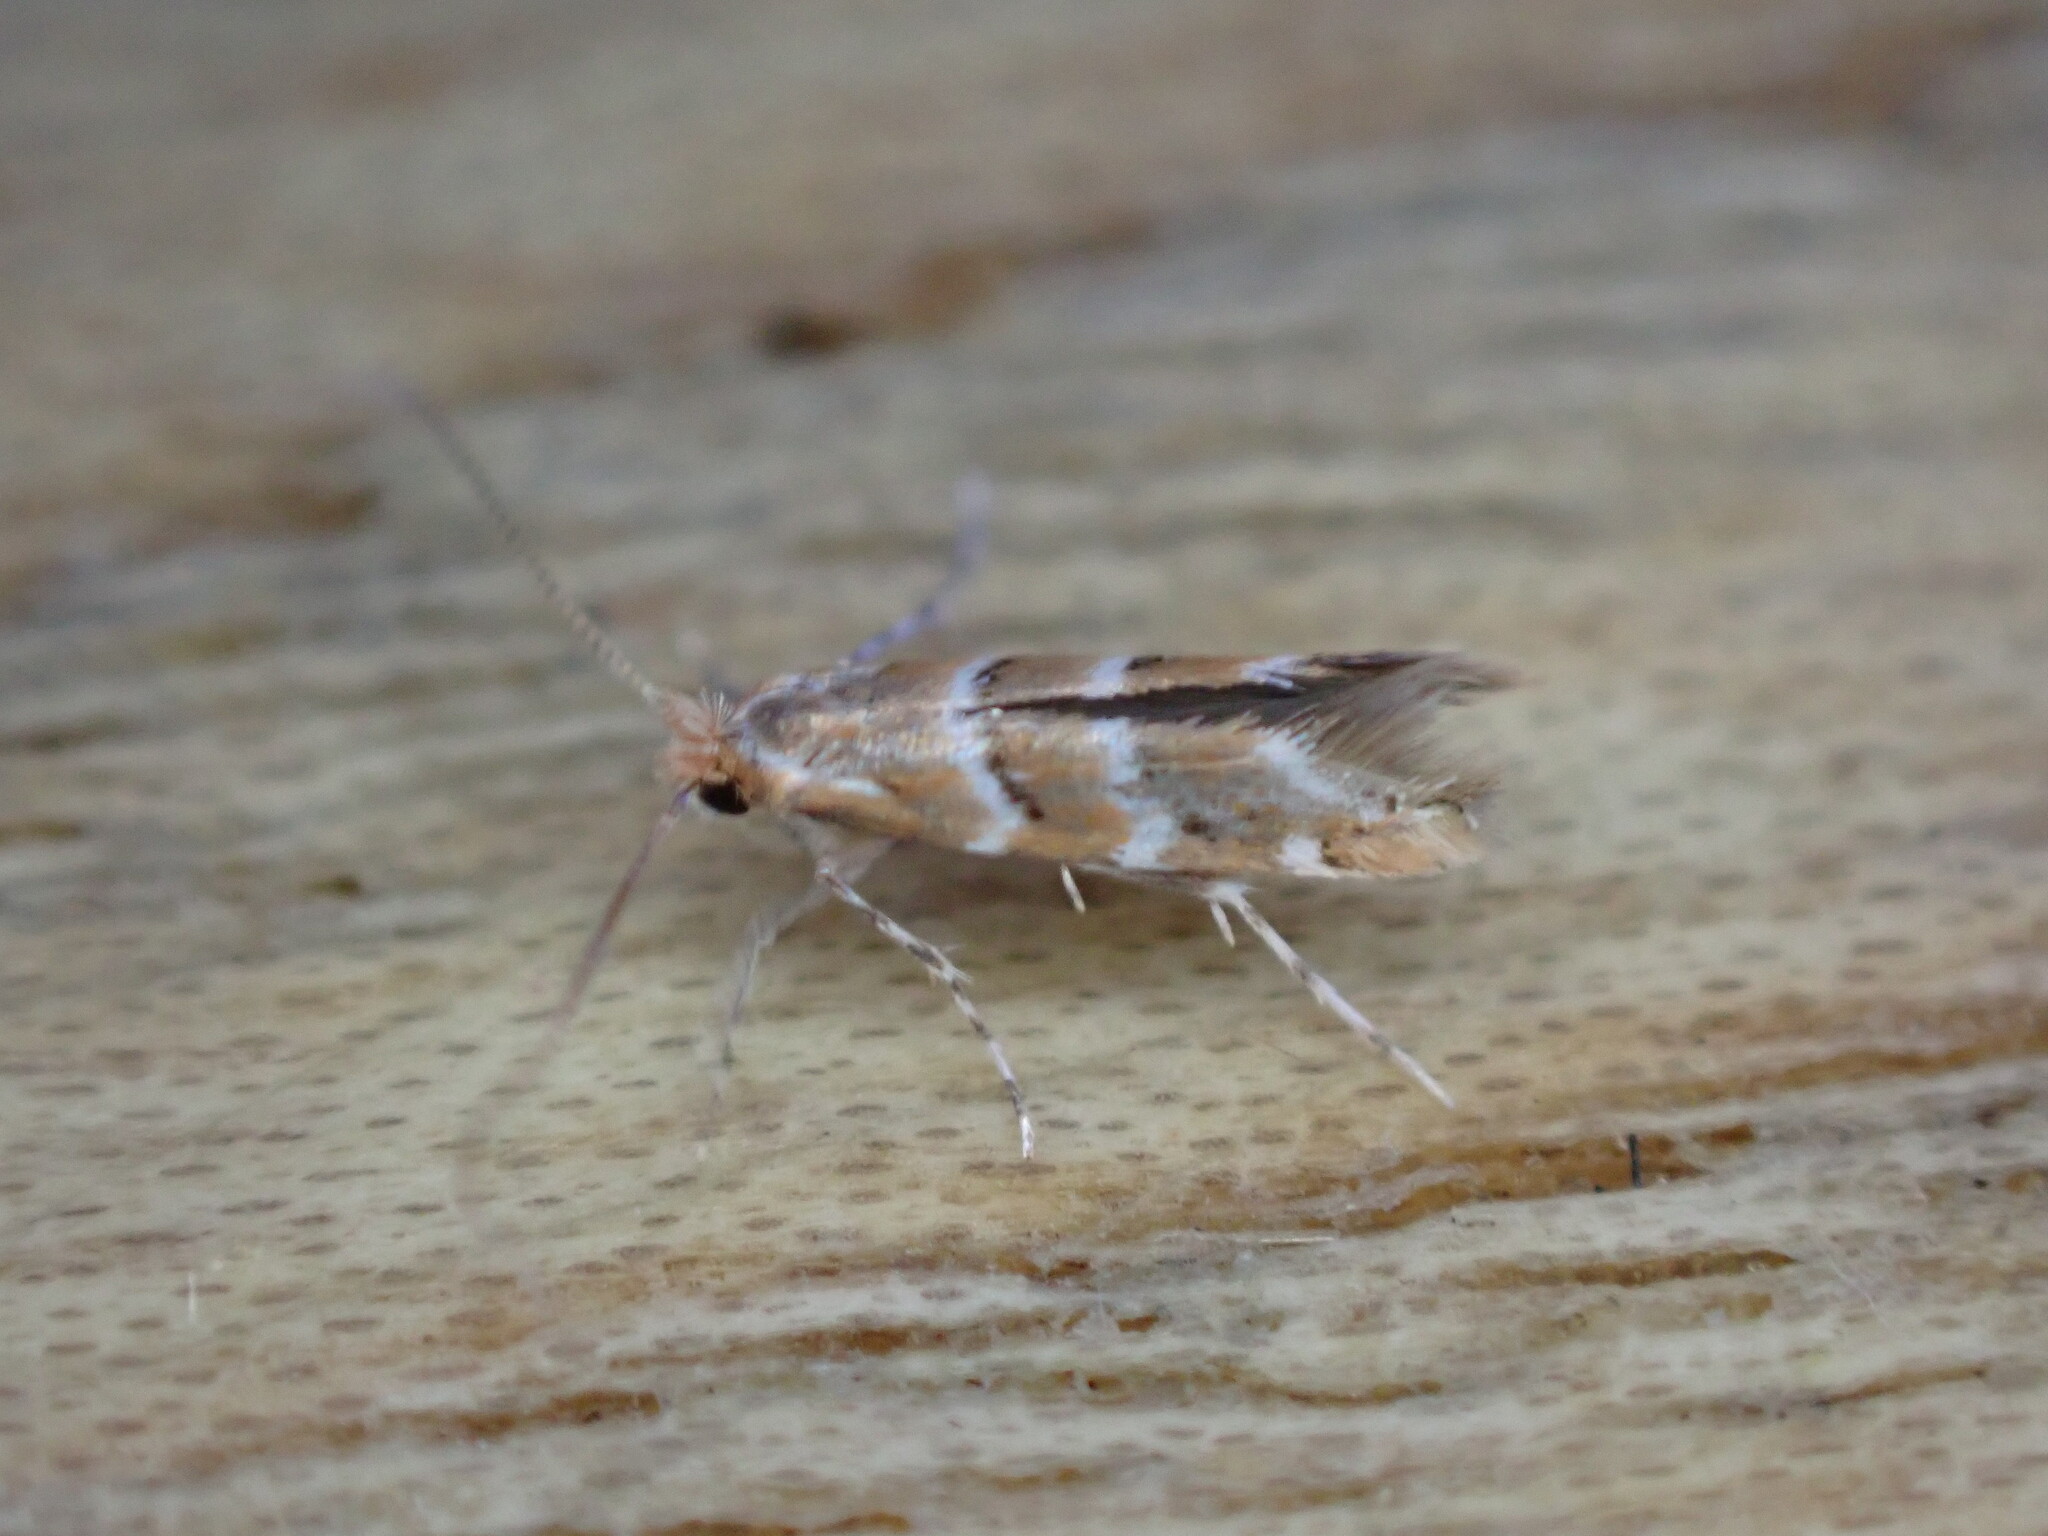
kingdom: Animalia
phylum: Arthropoda
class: Insecta
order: Lepidoptera
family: Gracillariidae
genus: Cameraria
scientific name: Cameraria ohridella
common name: Horse-chestnut leaf-miner
